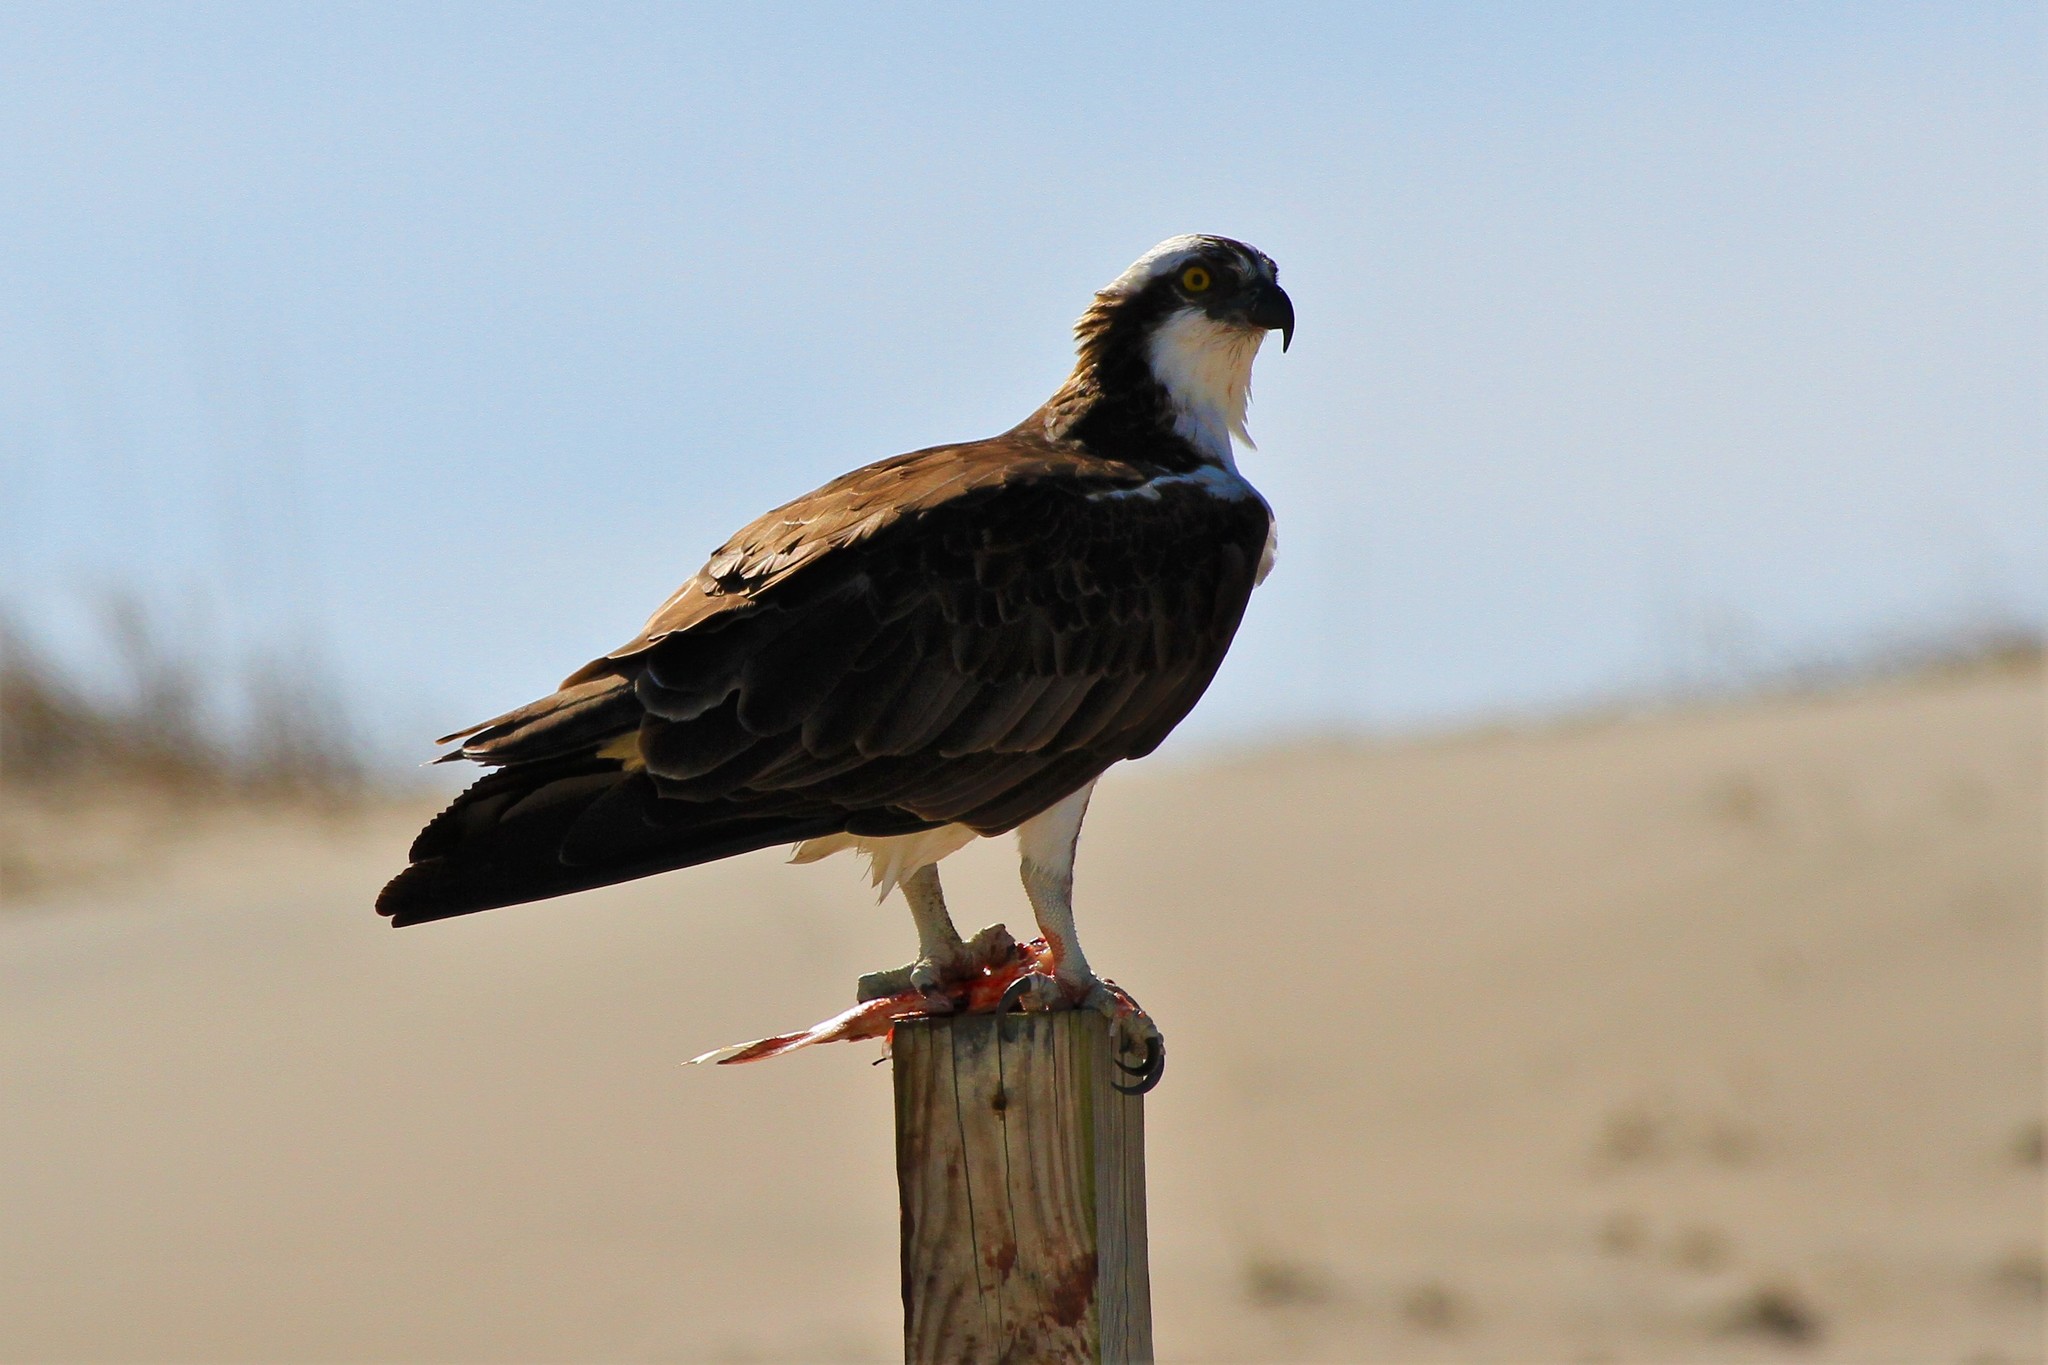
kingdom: Animalia
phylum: Chordata
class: Aves
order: Accipitriformes
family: Pandionidae
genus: Pandion
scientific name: Pandion haliaetus
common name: Osprey
